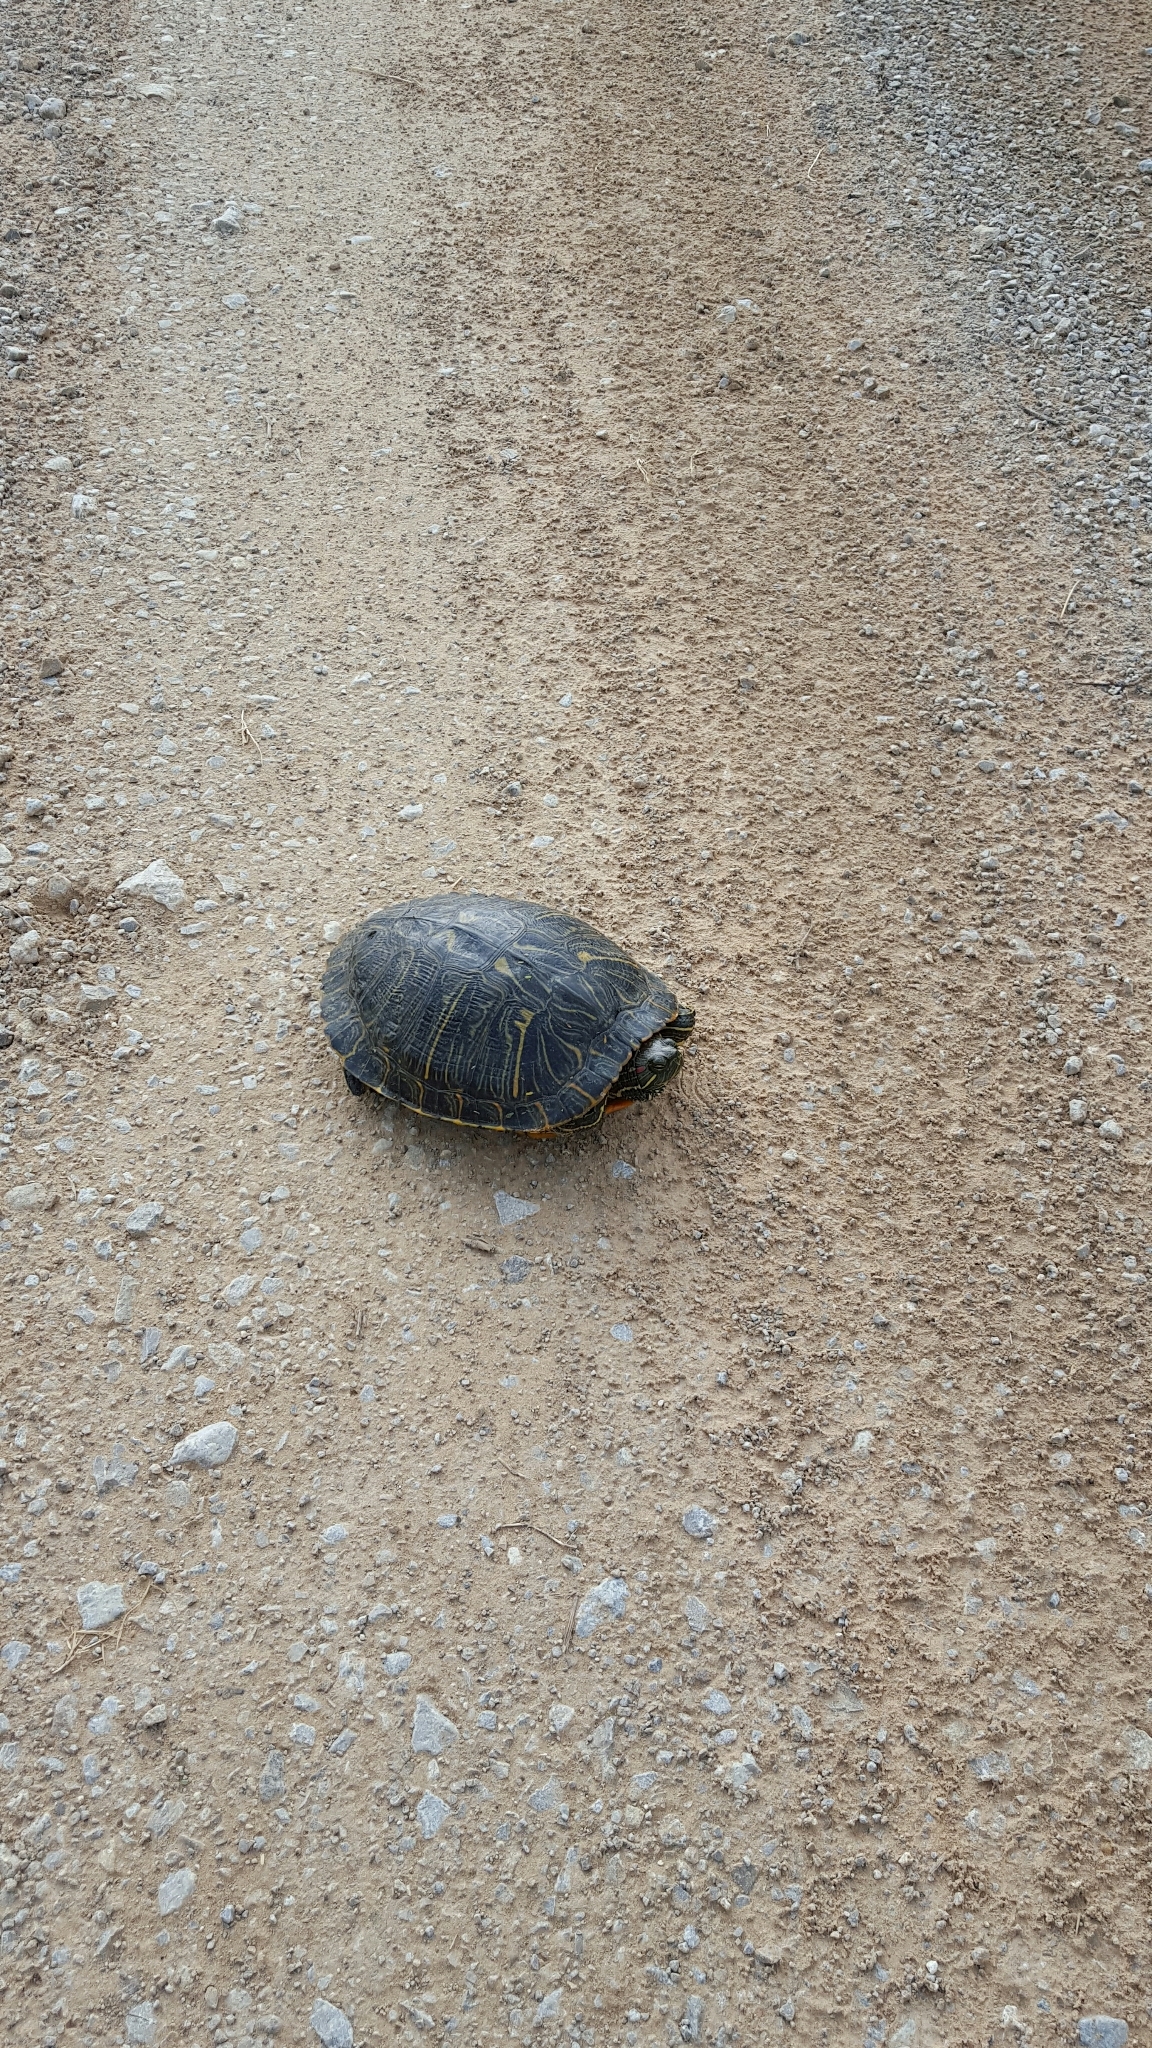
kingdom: Animalia
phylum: Chordata
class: Testudines
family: Emydidae
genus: Trachemys
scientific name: Trachemys scripta
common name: Slider
